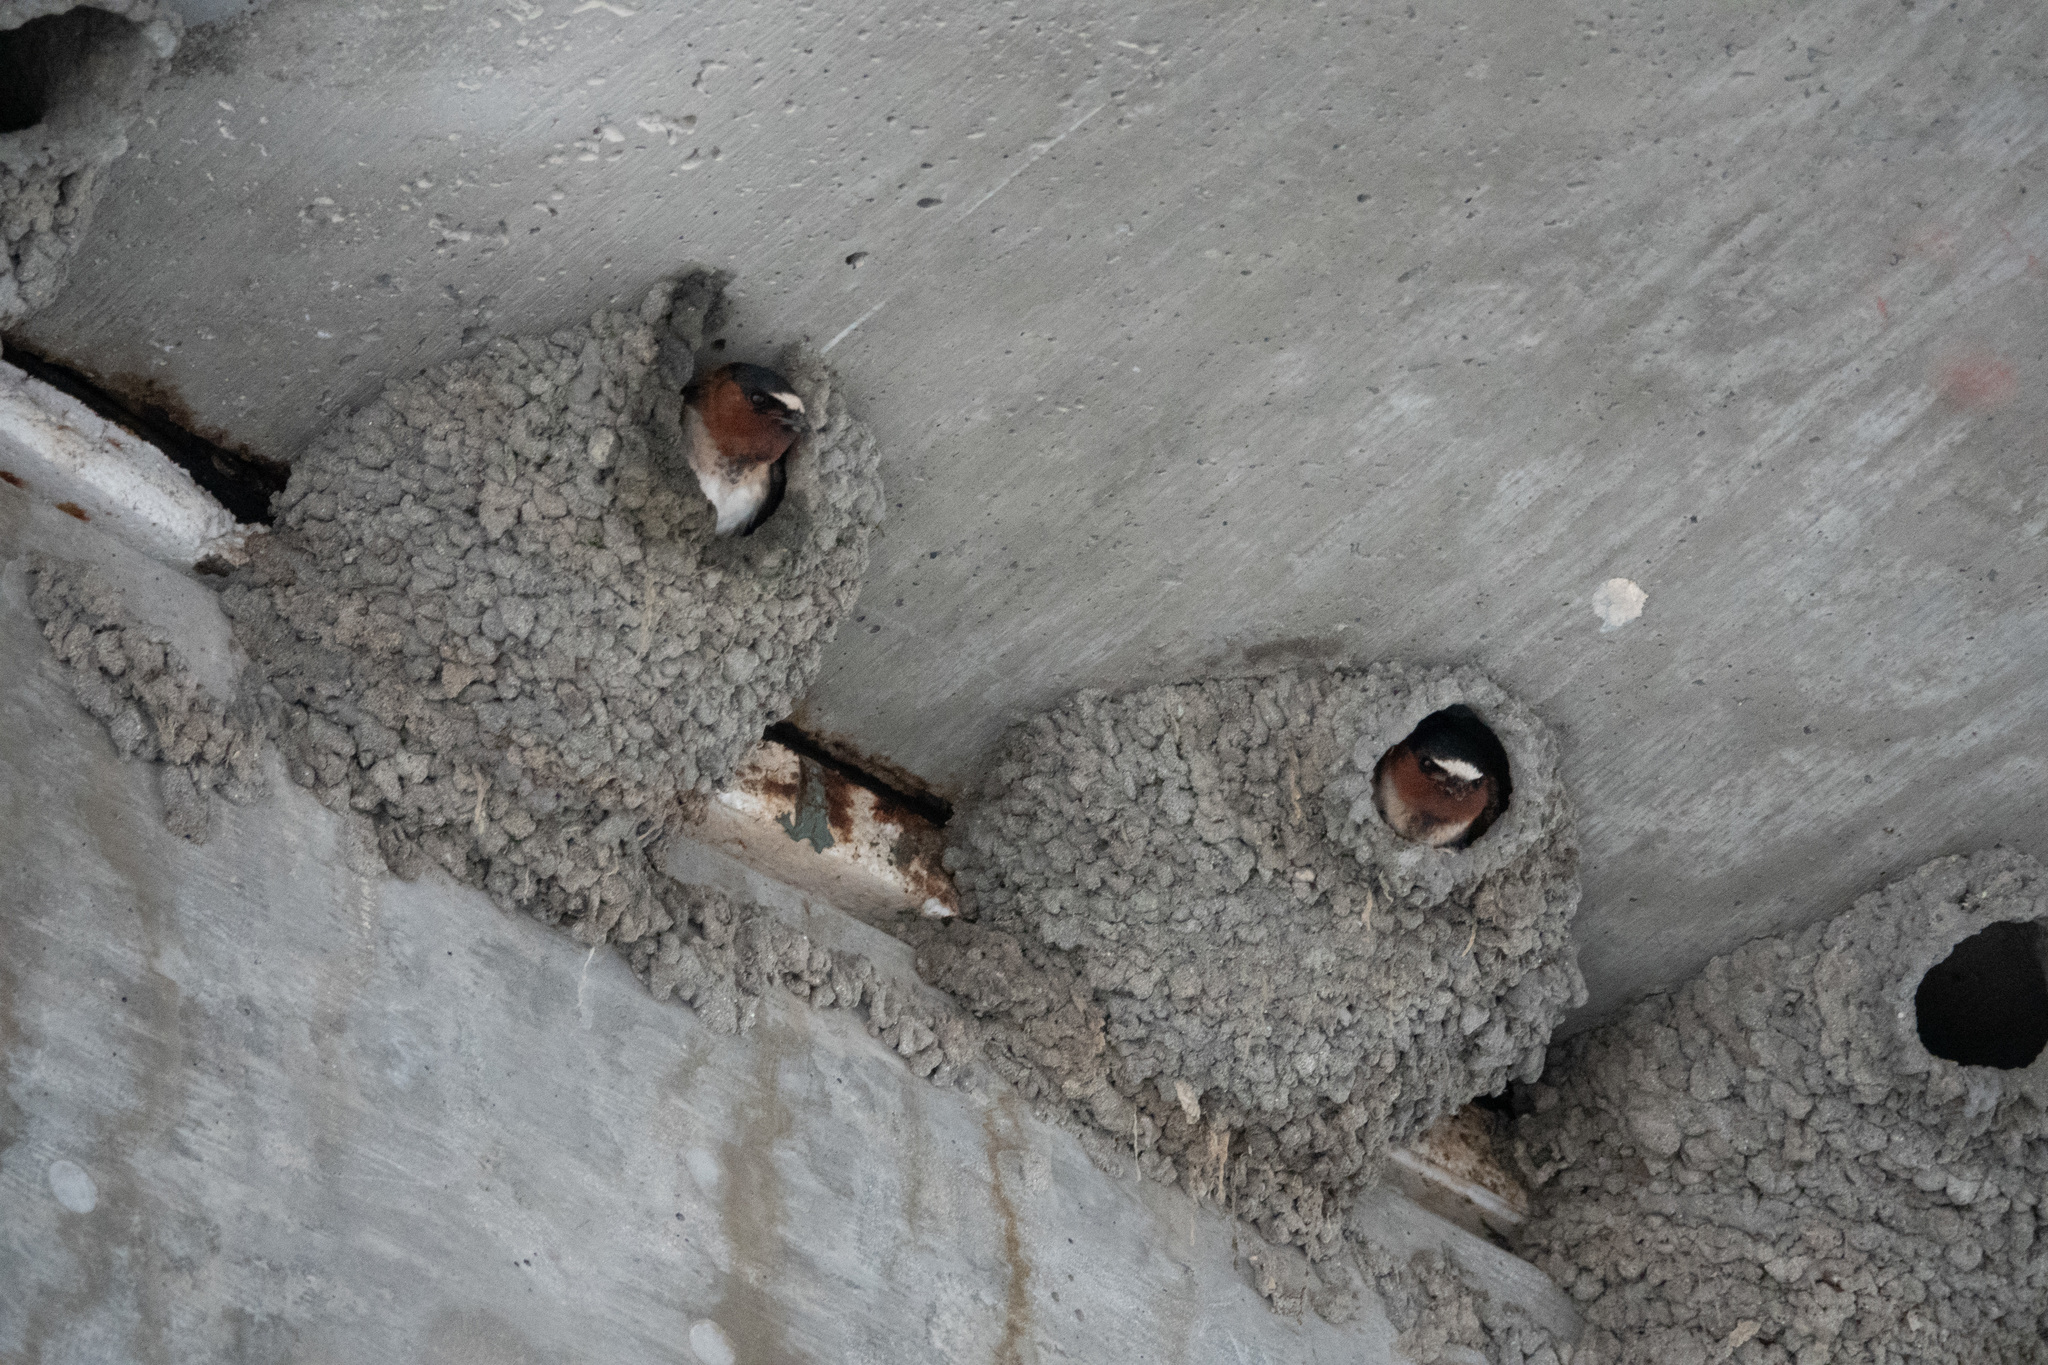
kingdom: Animalia
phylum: Chordata
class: Aves
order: Passeriformes
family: Hirundinidae
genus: Petrochelidon
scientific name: Petrochelidon pyrrhonota
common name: American cliff swallow
